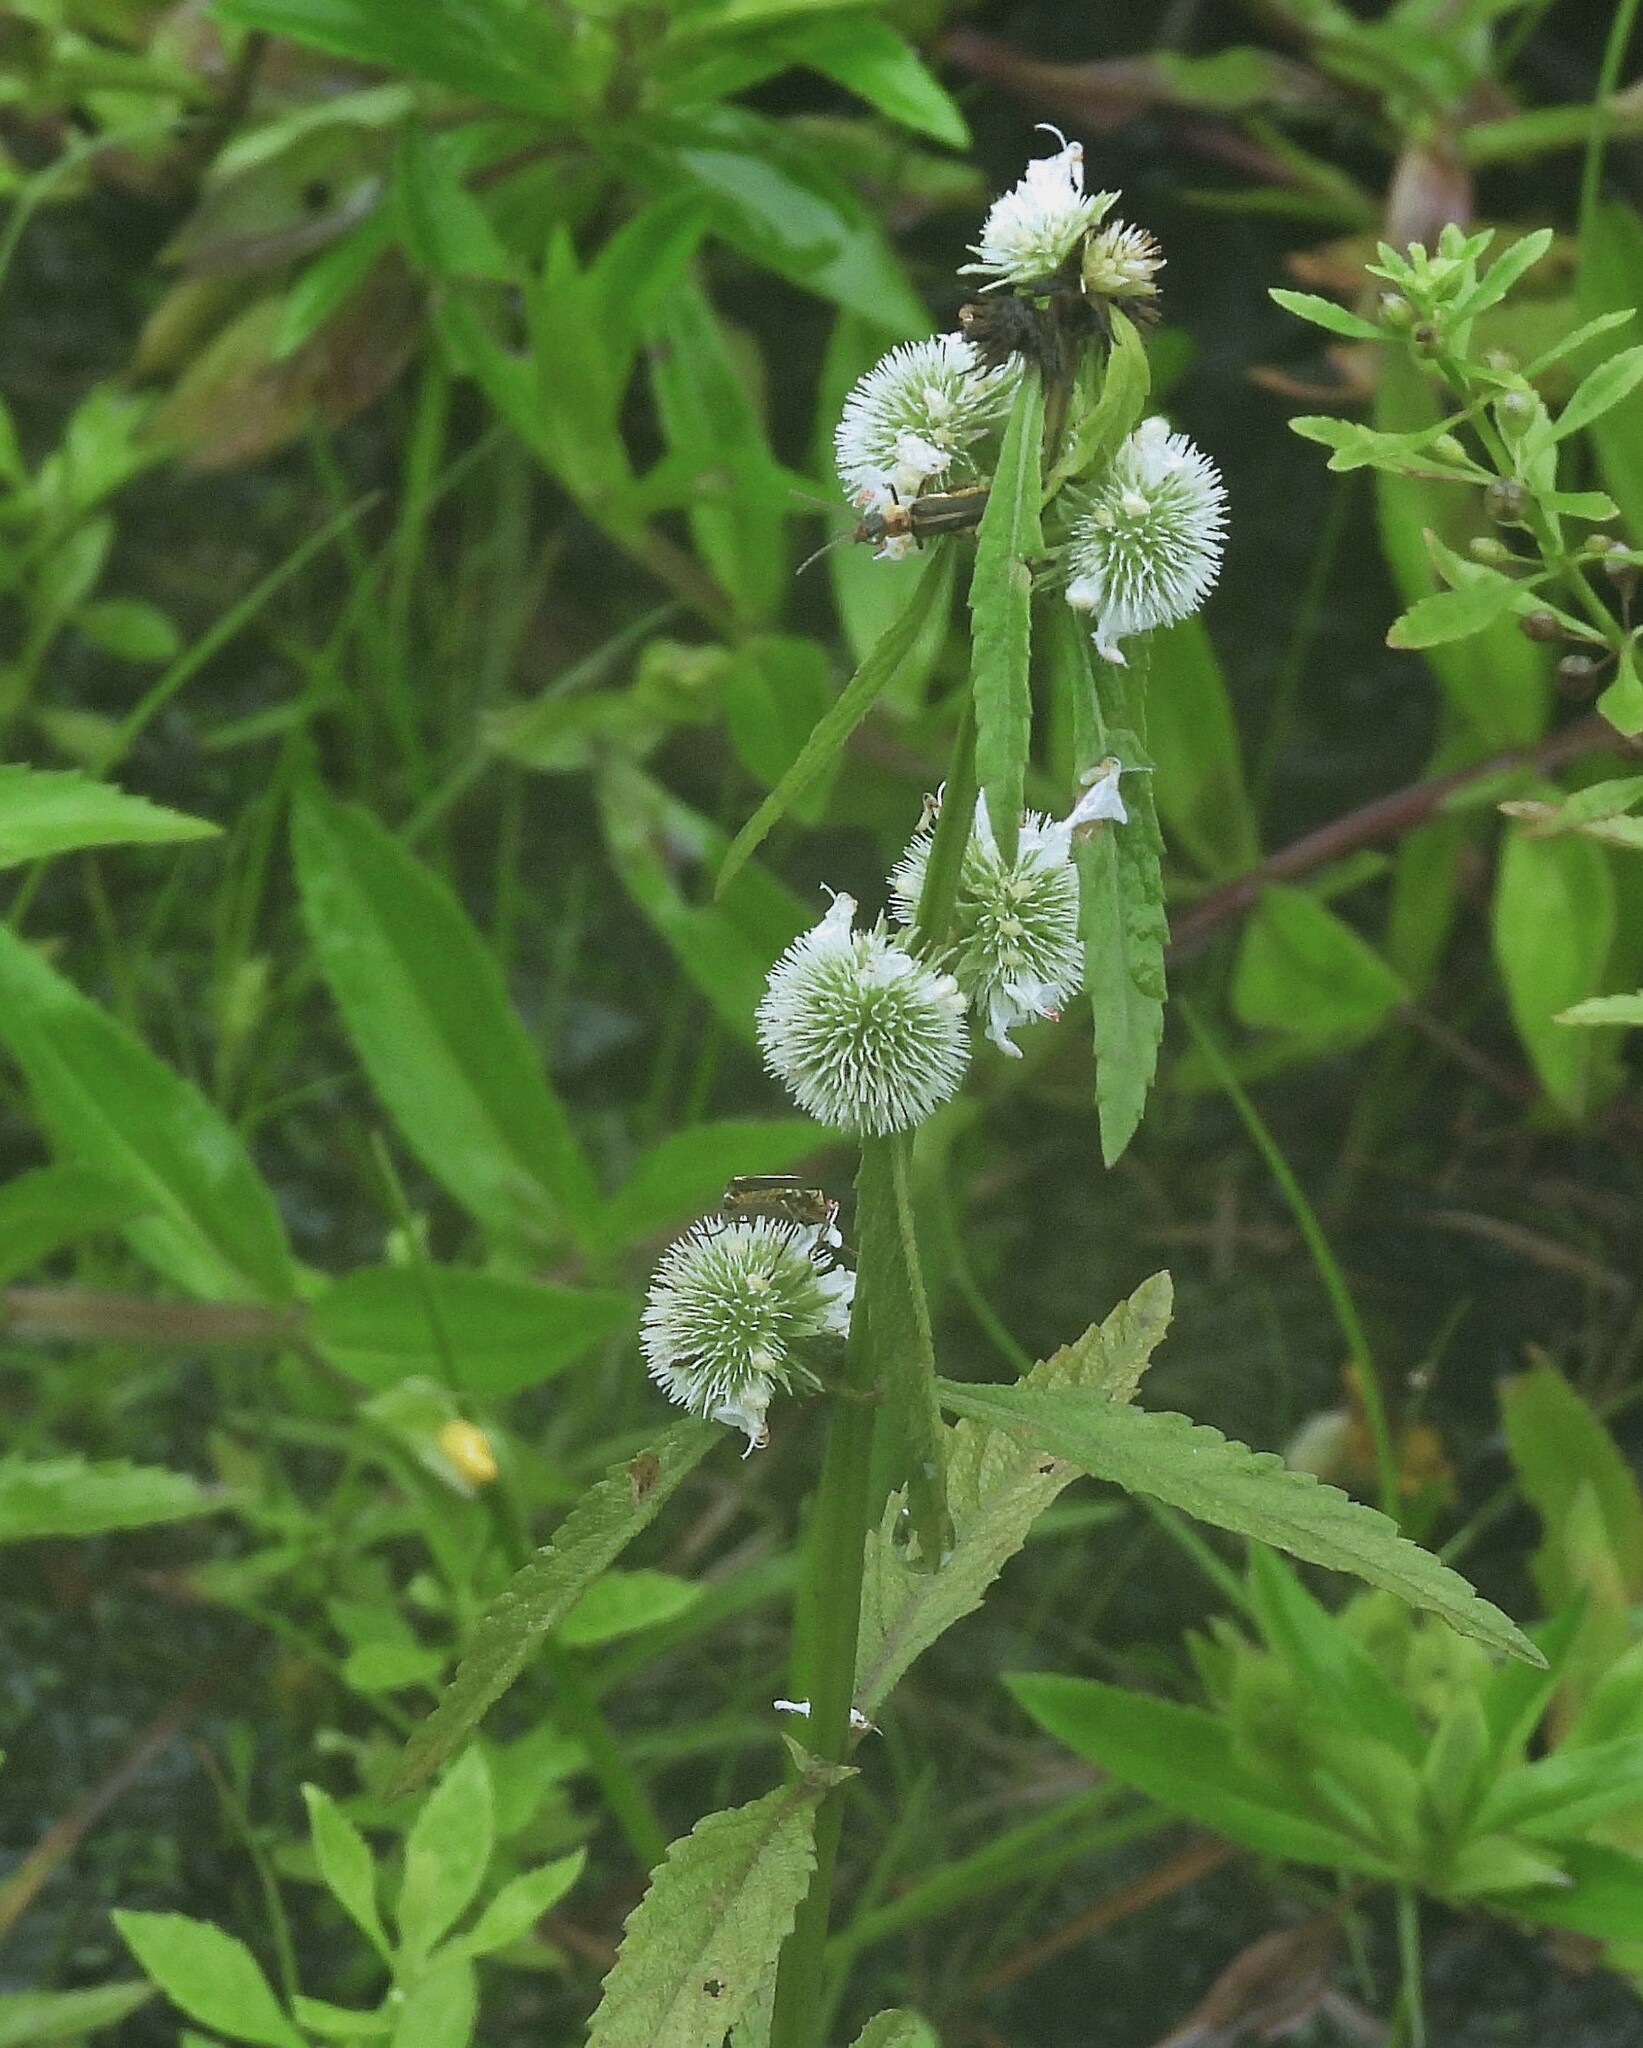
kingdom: Plantae
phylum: Tracheophyta
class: Magnoliopsida
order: Lamiales
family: Lamiaceae
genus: Hyptis
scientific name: Hyptis lappacea
